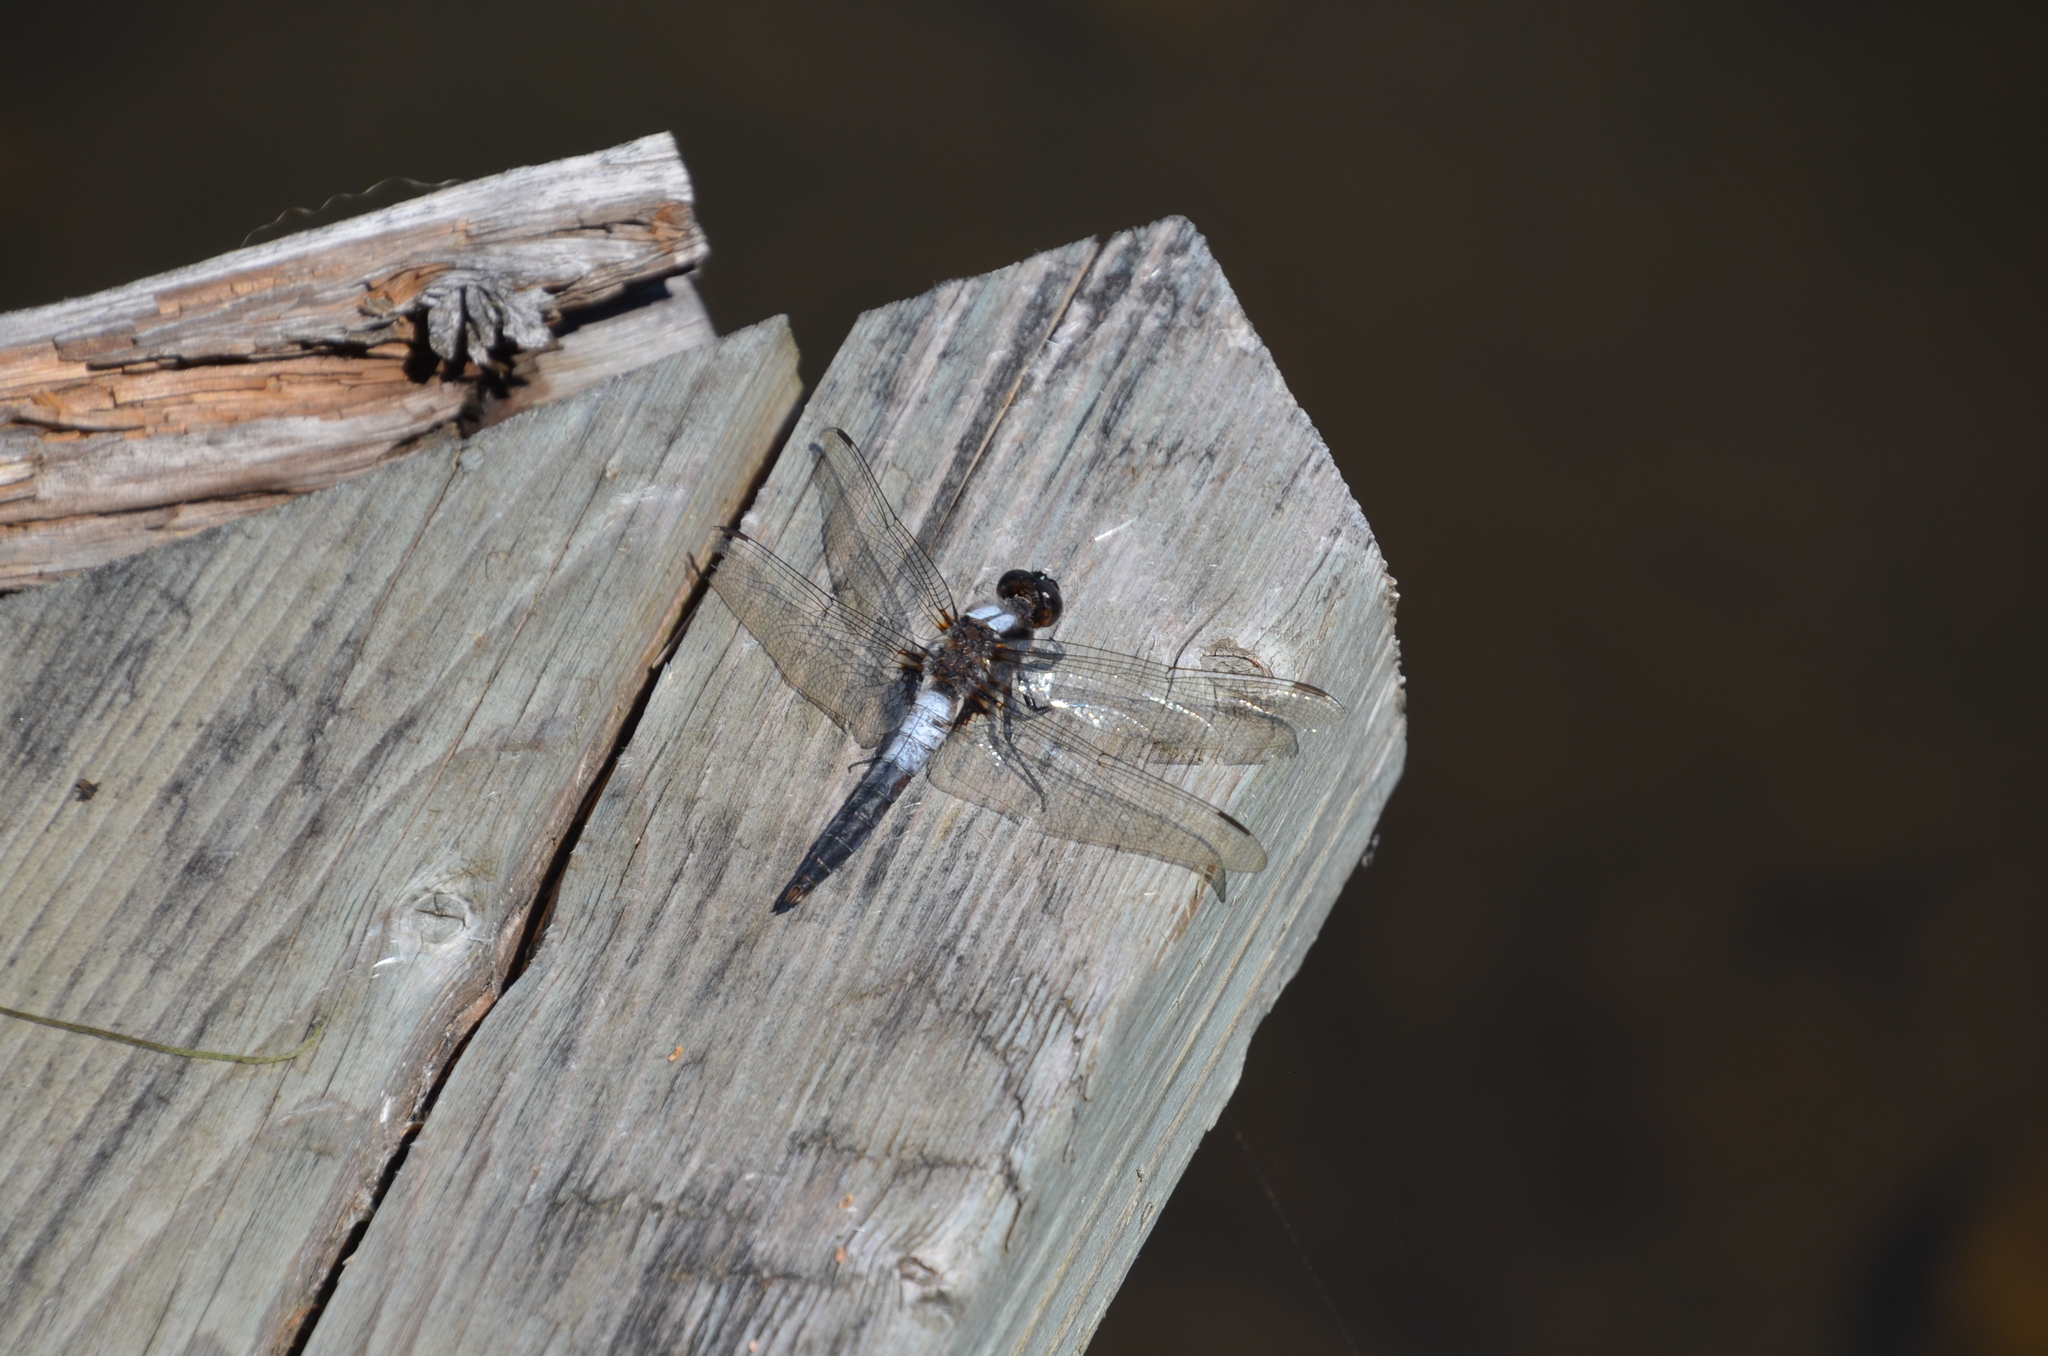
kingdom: Animalia
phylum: Arthropoda
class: Insecta
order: Odonata
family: Libellulidae
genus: Ladona
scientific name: Ladona julia
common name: Chalk-fronted corporal
